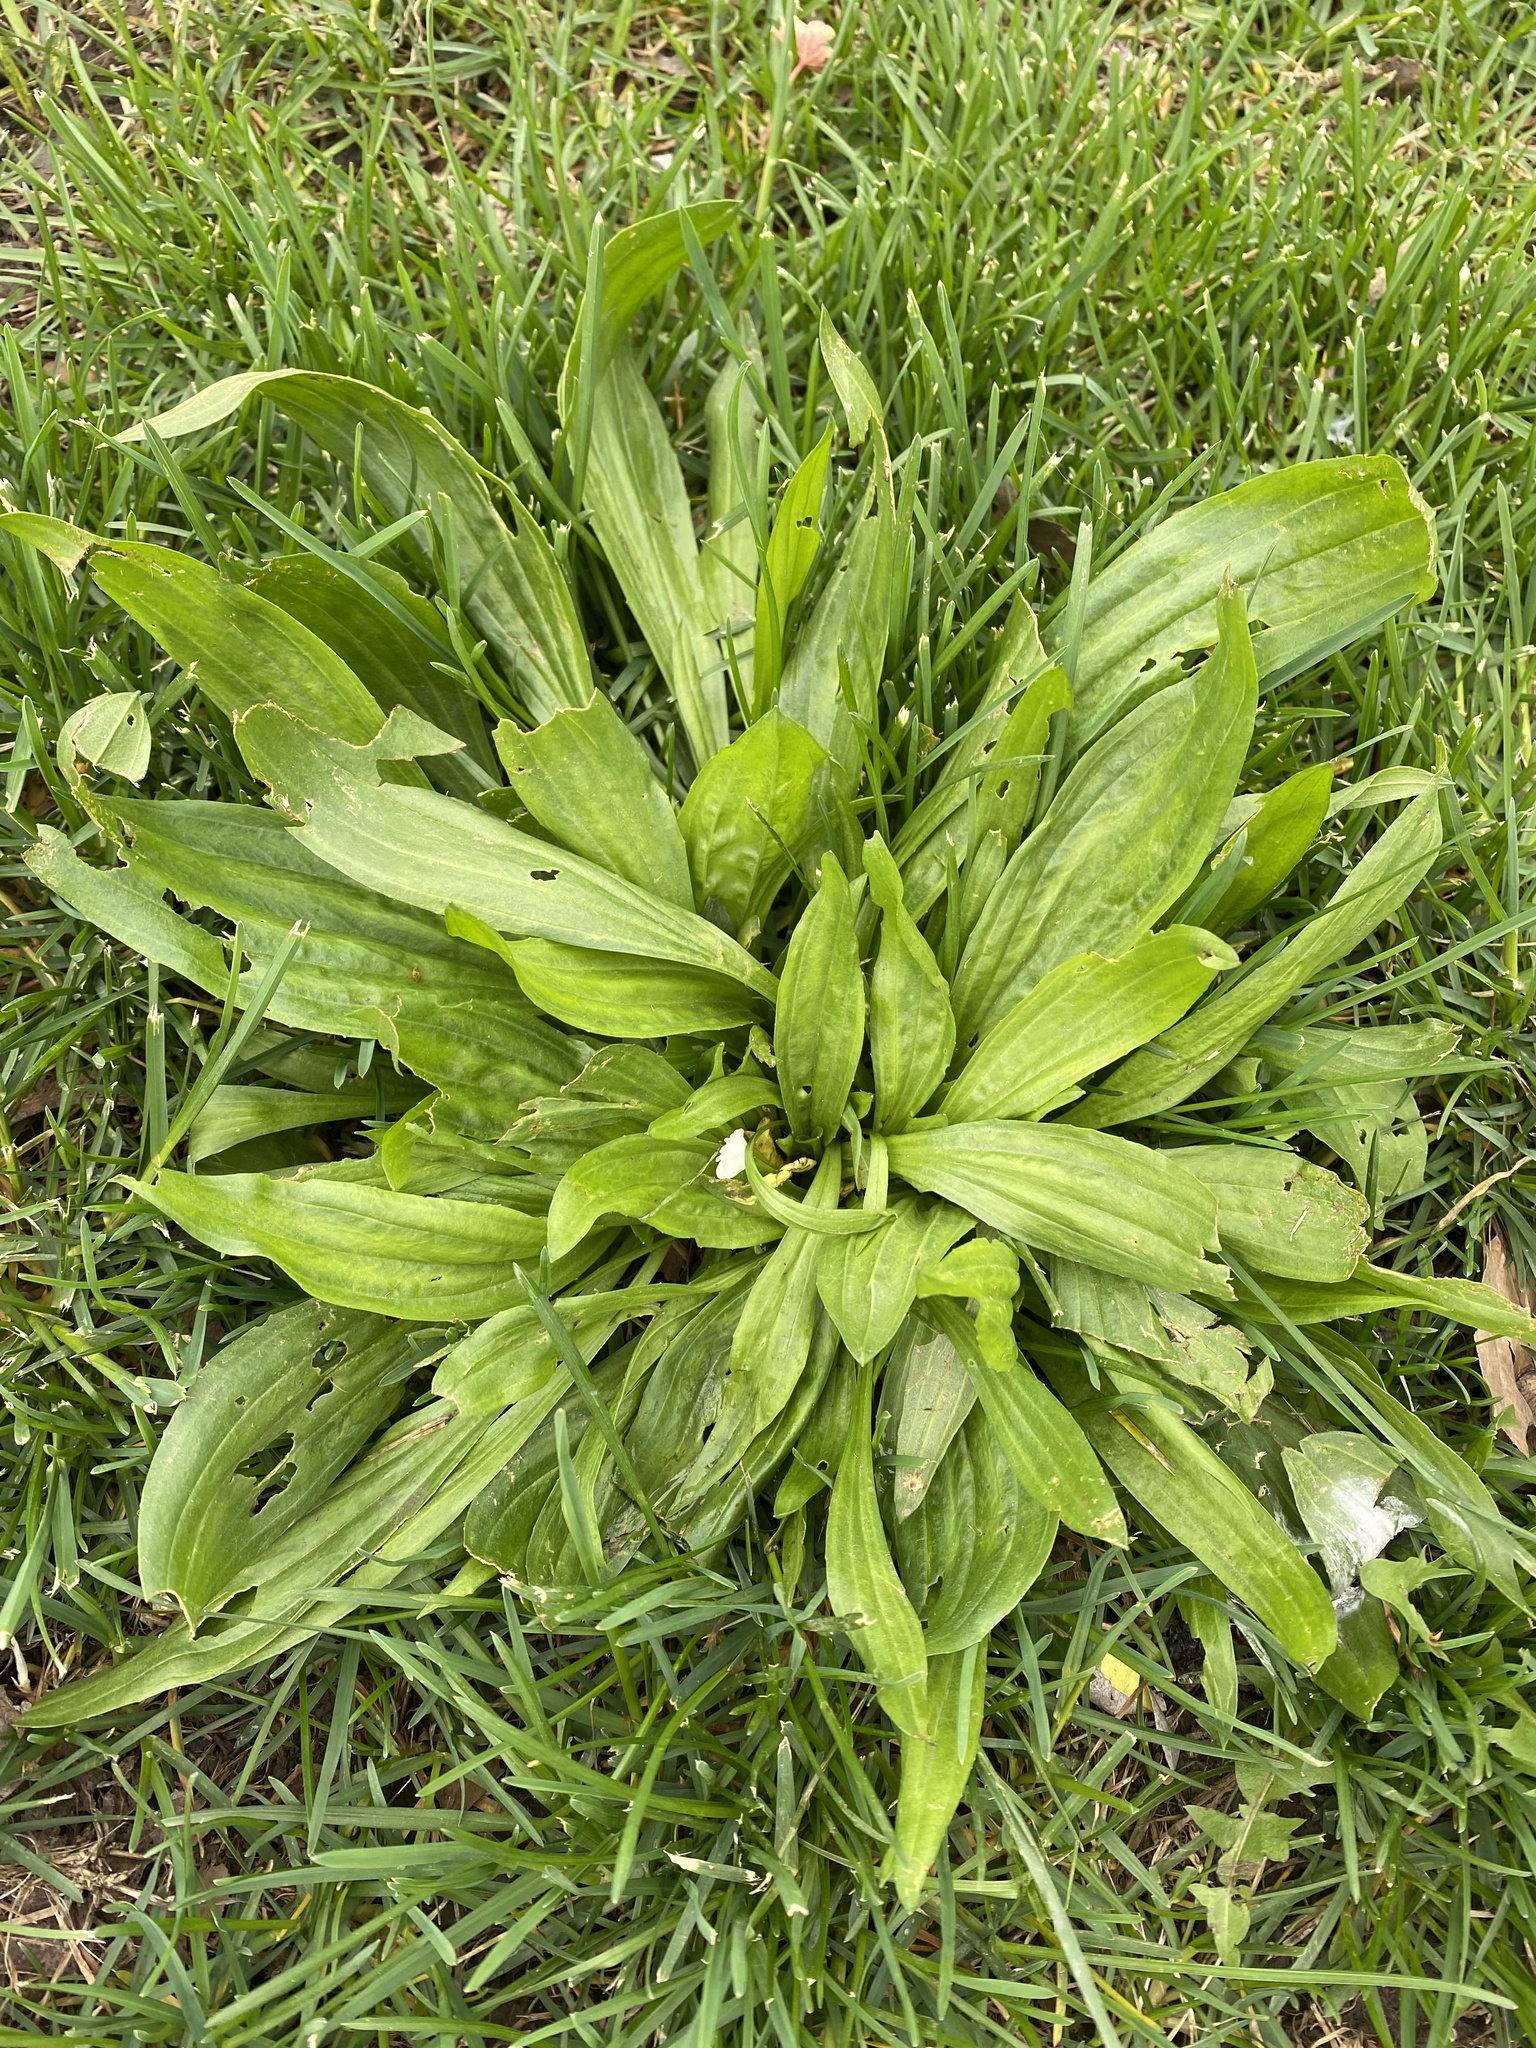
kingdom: Plantae
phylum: Tracheophyta
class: Magnoliopsida
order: Lamiales
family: Plantaginaceae
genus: Plantago
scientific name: Plantago lanceolata
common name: Ribwort plantain
